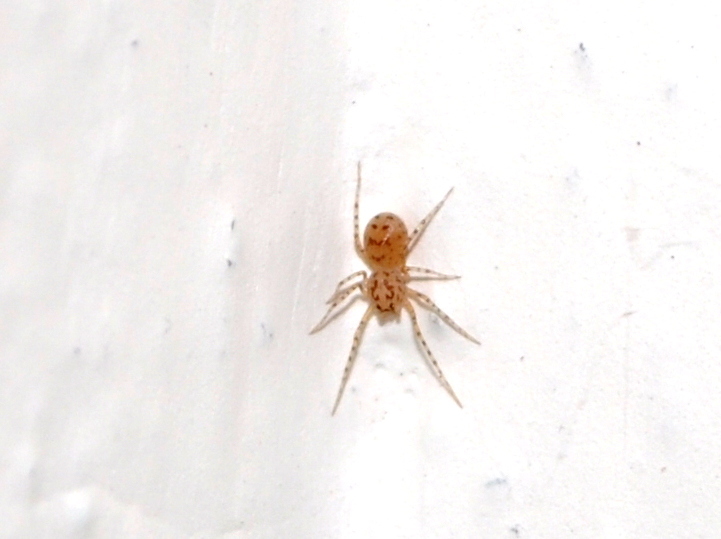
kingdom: Animalia
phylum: Arthropoda
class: Arachnida
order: Araneae
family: Scytodidae
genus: Scytodes
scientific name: Scytodes thoracica
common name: Spitting spider
